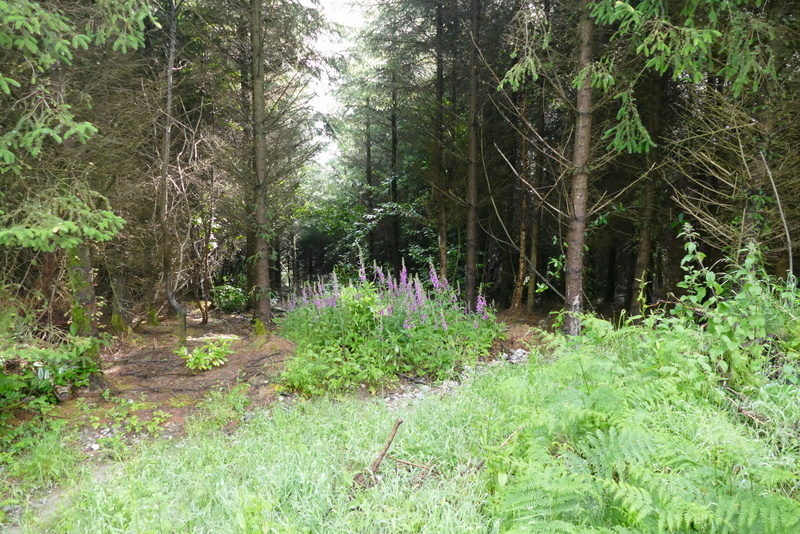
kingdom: Plantae
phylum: Tracheophyta
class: Magnoliopsida
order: Lamiales
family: Plantaginaceae
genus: Digitalis
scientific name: Digitalis purpurea
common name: Foxglove
